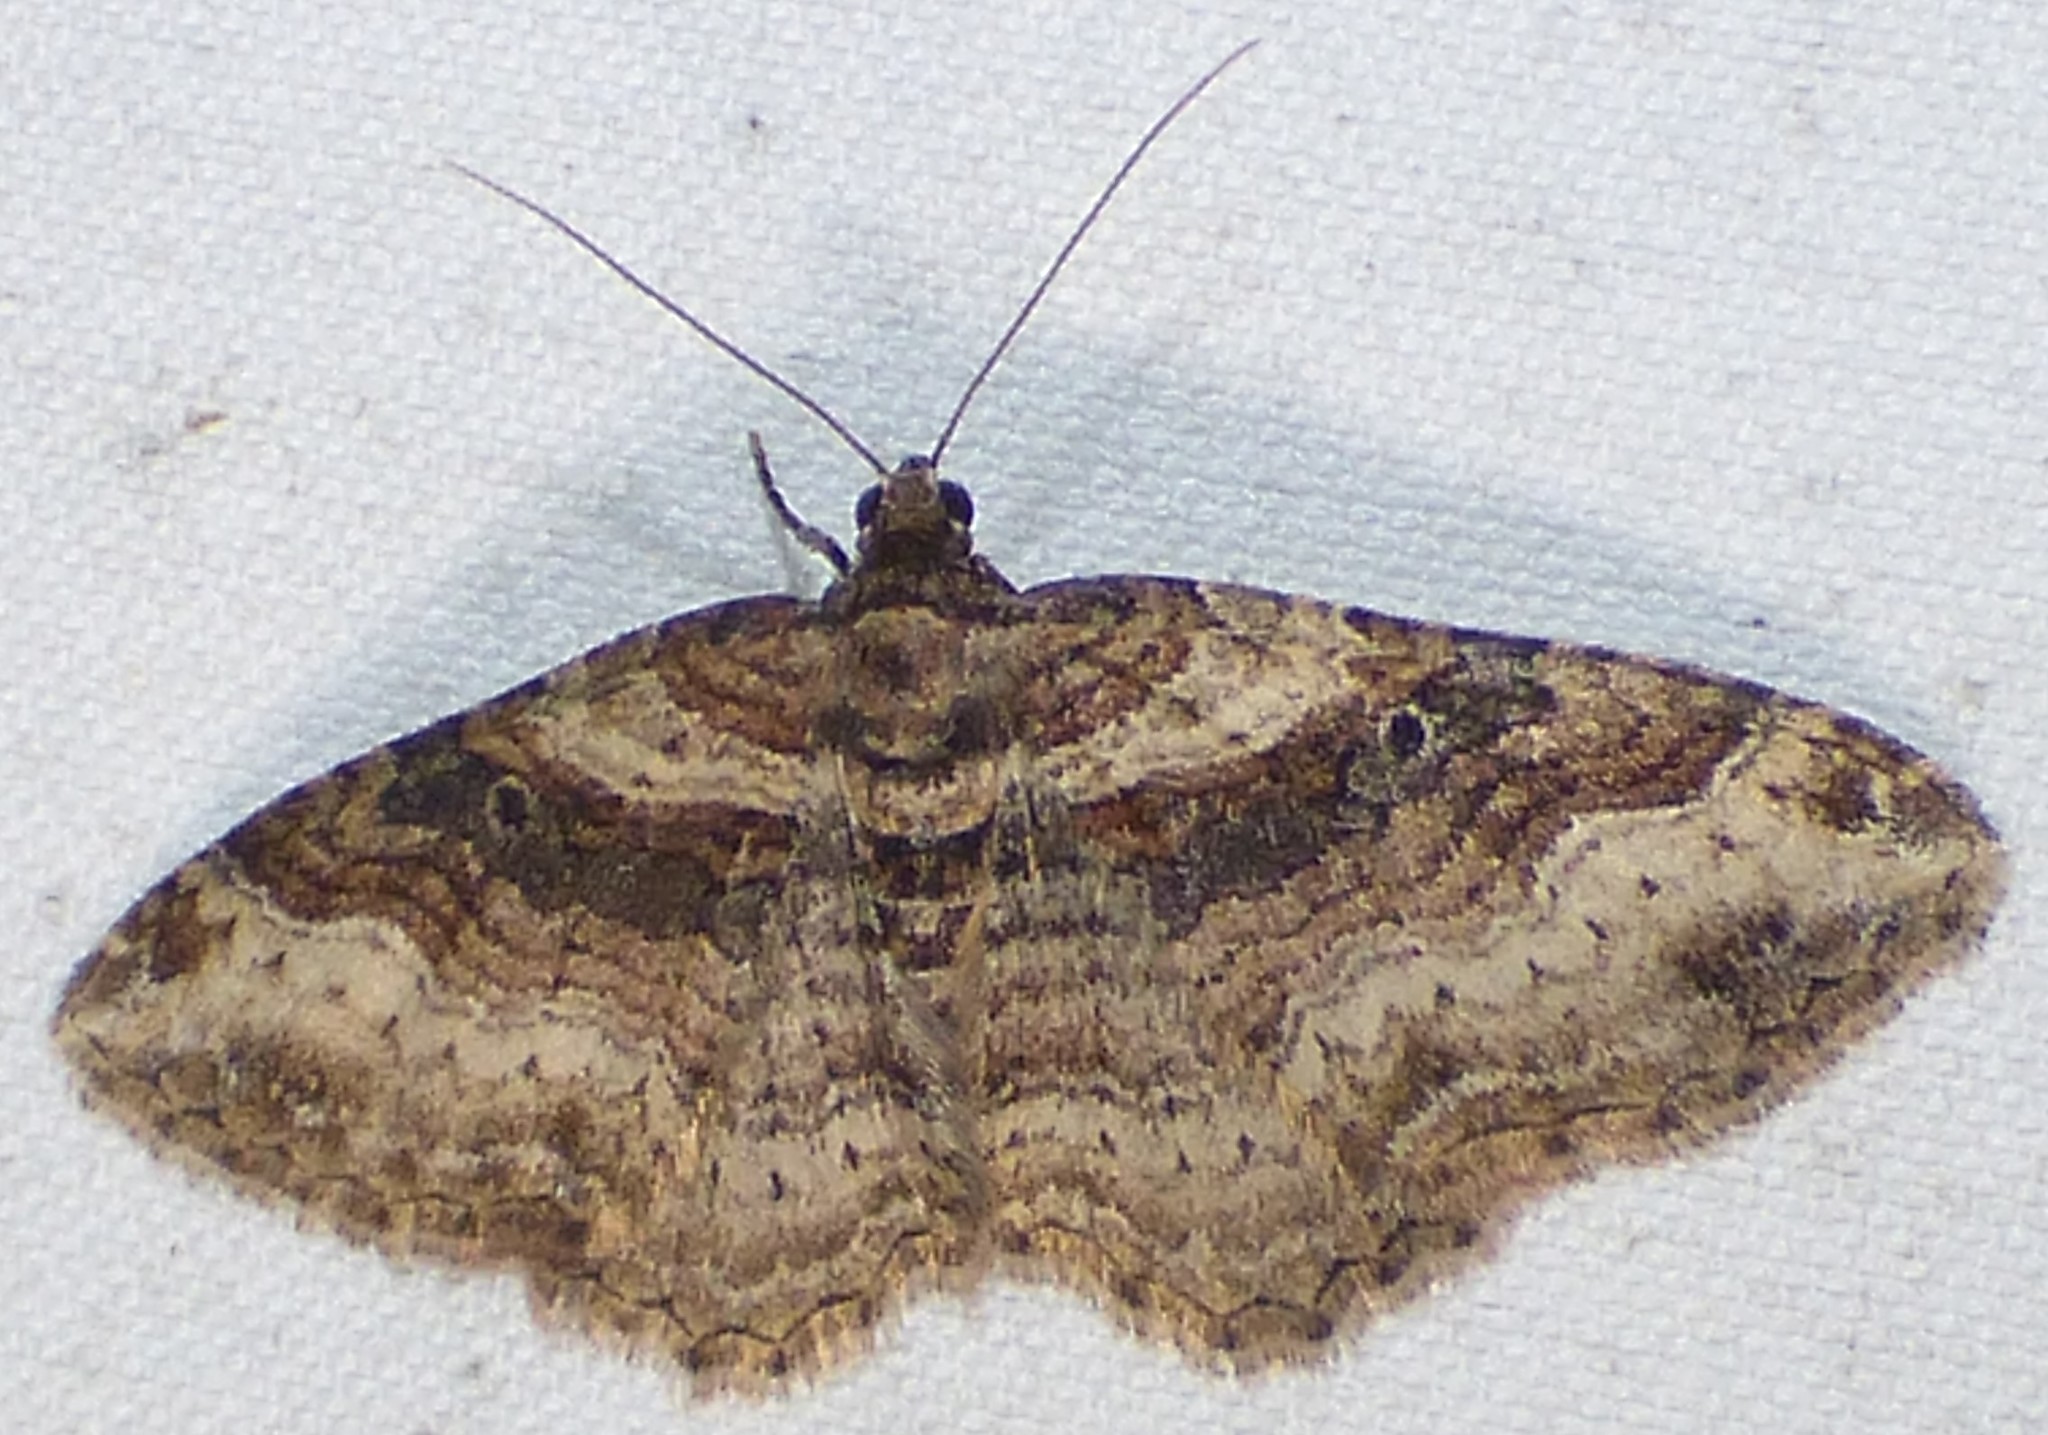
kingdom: Animalia
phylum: Arthropoda
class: Insecta
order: Lepidoptera
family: Geometridae
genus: Costaconvexa
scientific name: Costaconvexa centrostrigaria
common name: Bent-line carpet
